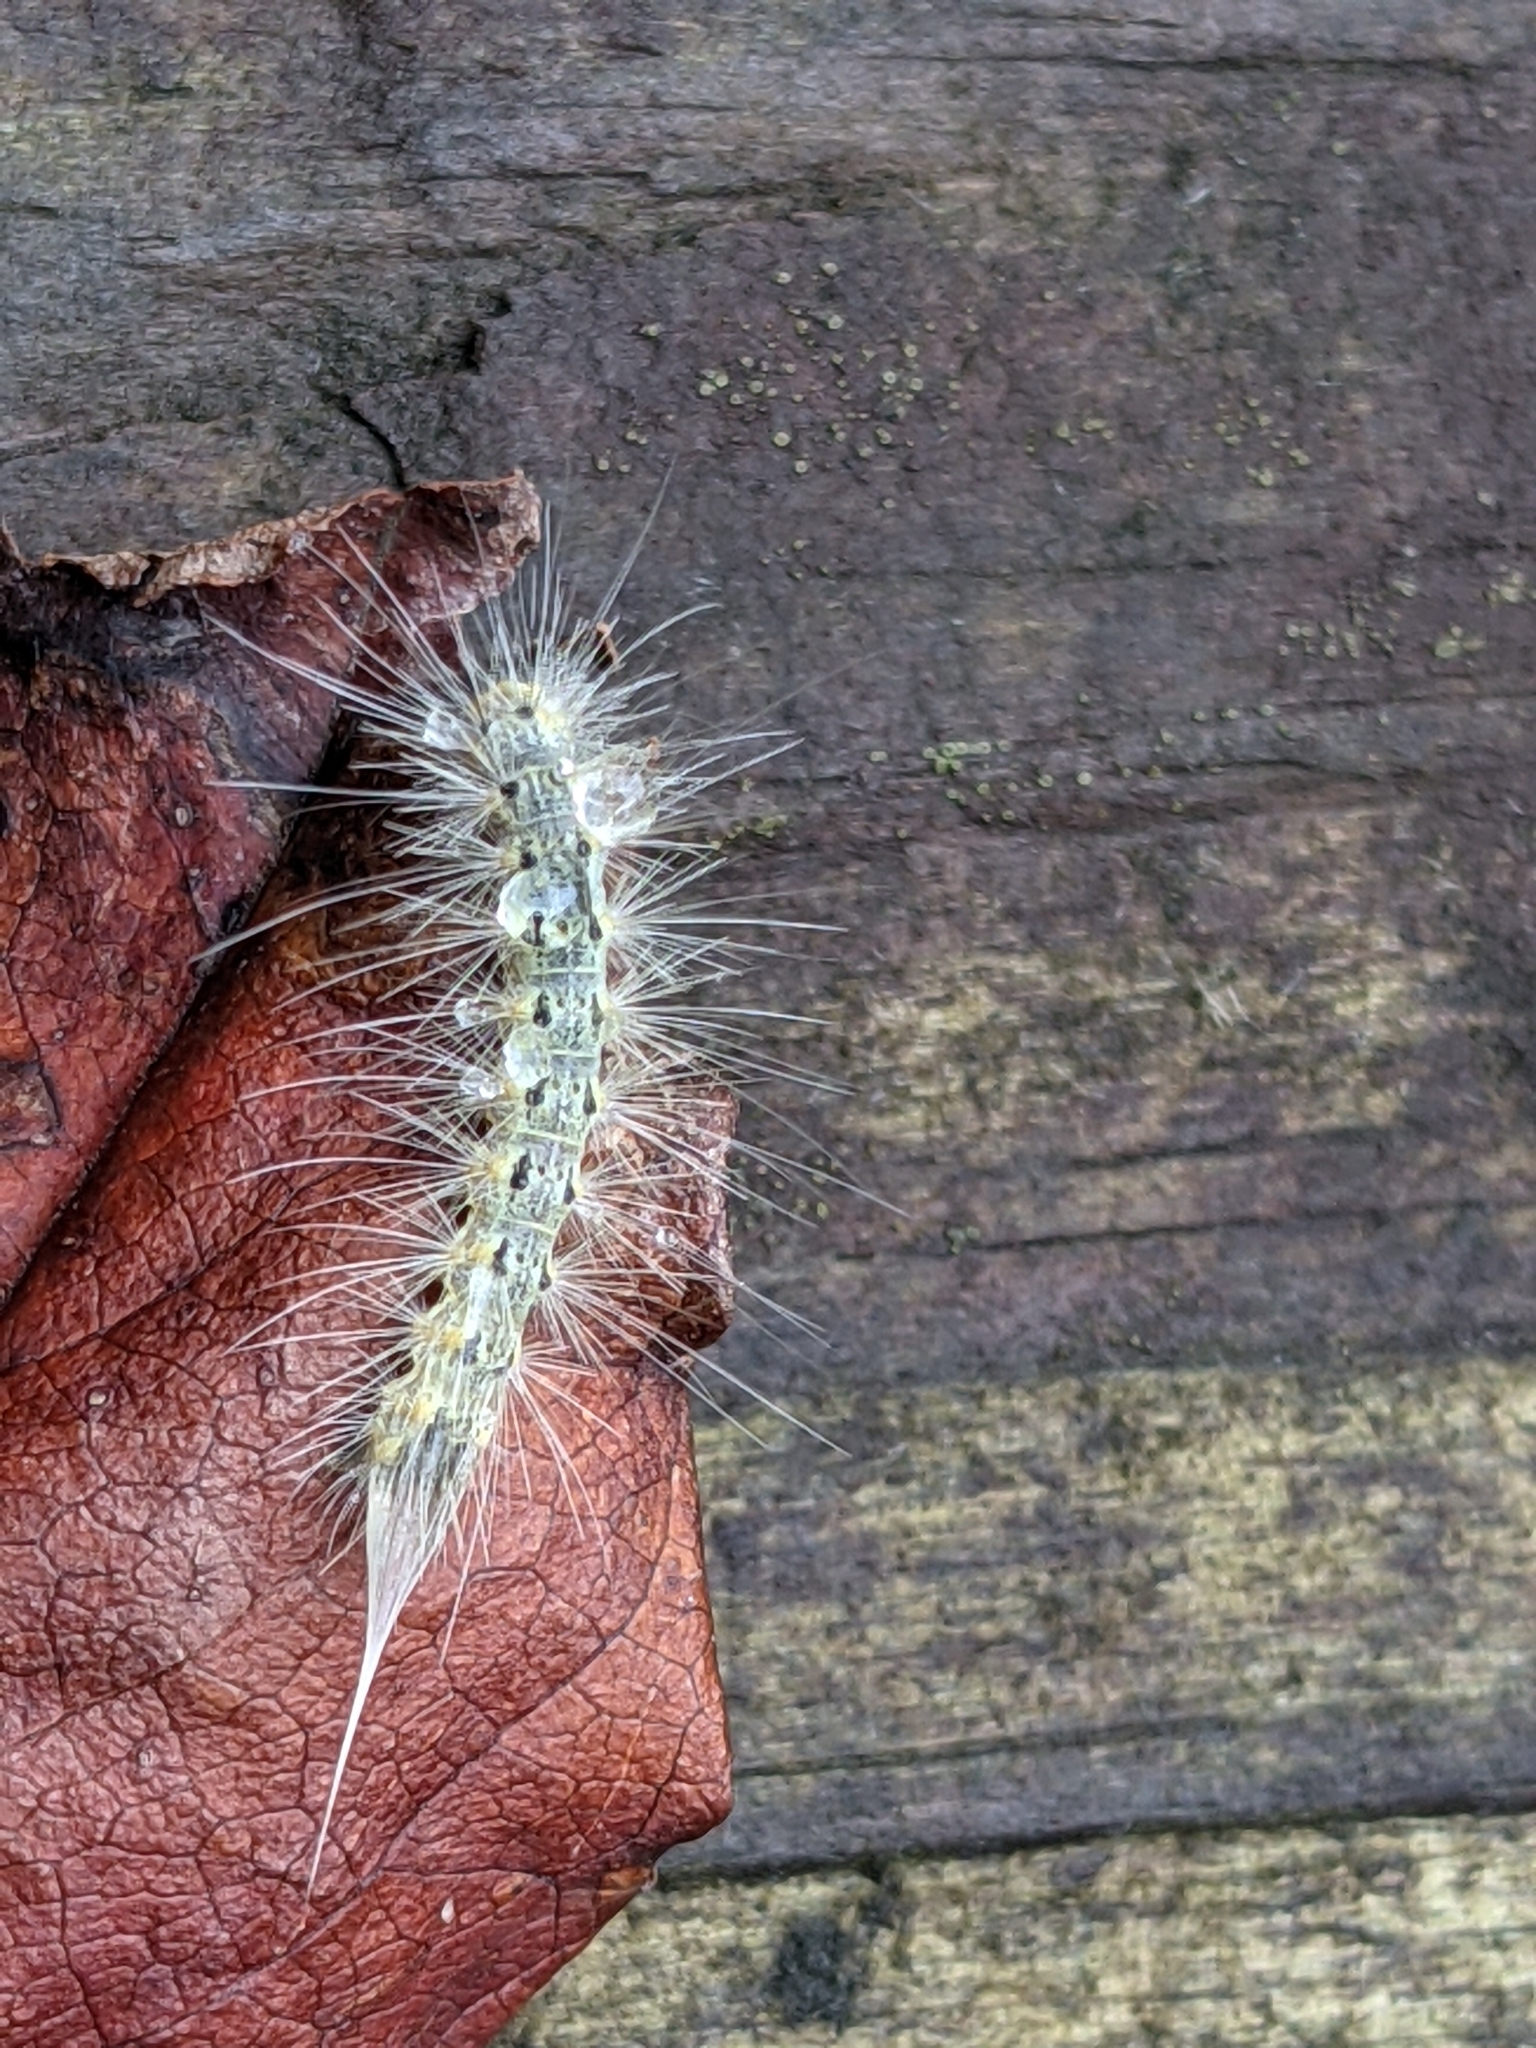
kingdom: Animalia
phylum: Arthropoda
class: Insecta
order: Lepidoptera
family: Erebidae
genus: Hyphantria
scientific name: Hyphantria cunea
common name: American white moth
